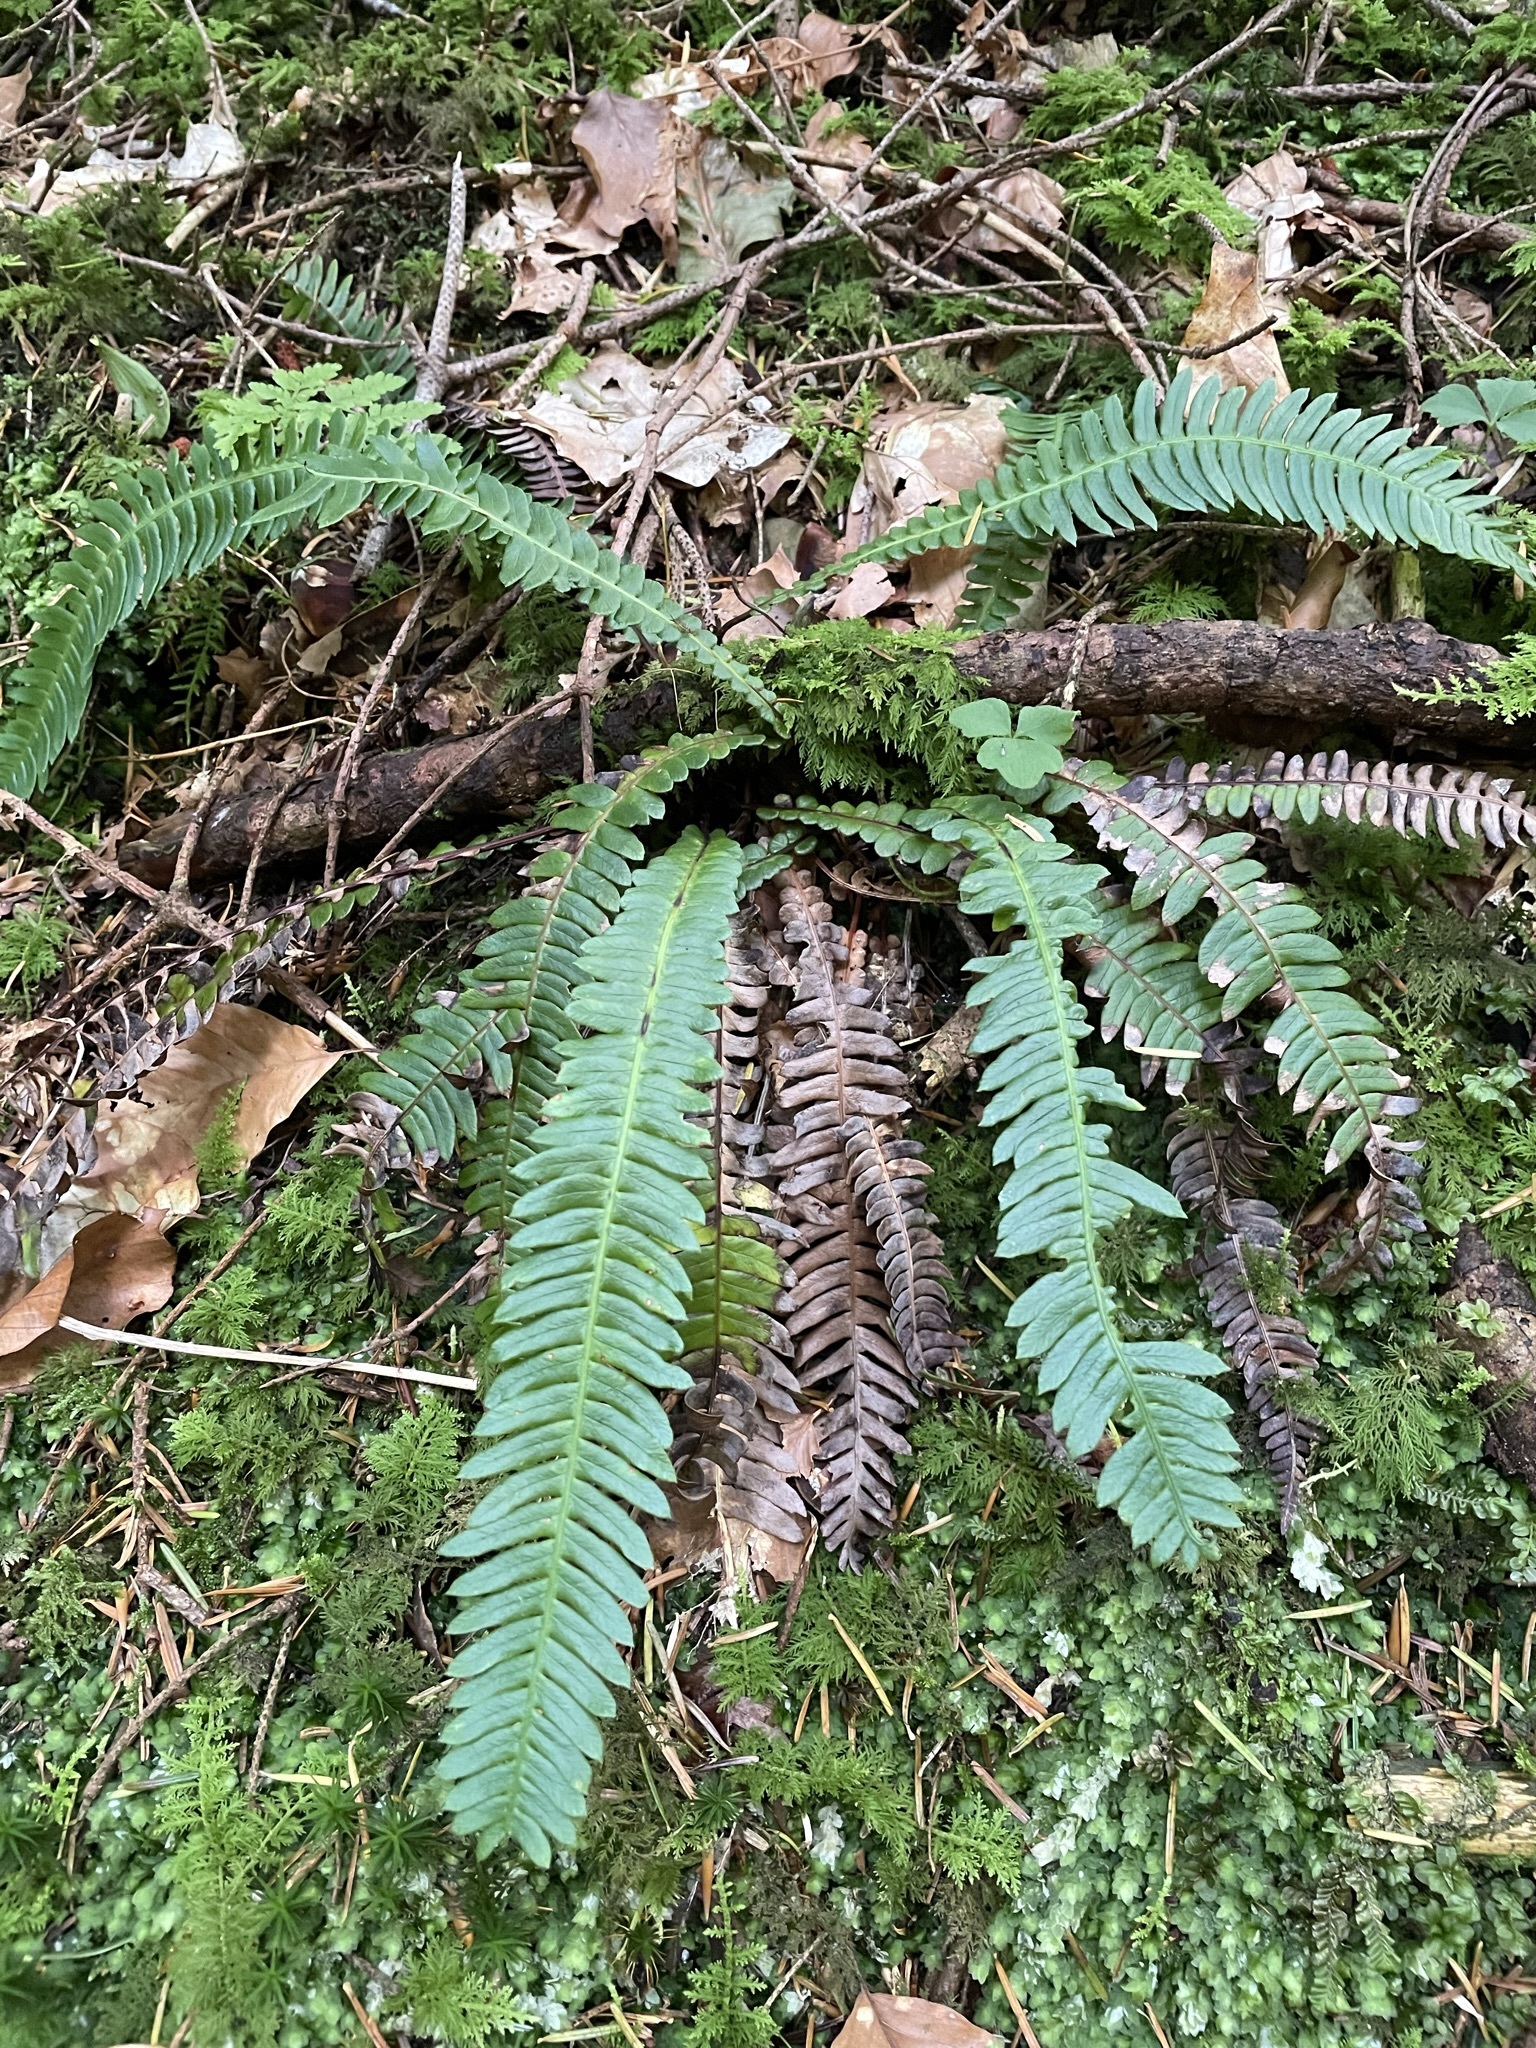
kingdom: Plantae
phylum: Tracheophyta
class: Polypodiopsida
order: Polypodiales
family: Blechnaceae
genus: Struthiopteris
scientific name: Struthiopteris spicant
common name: Deer fern
